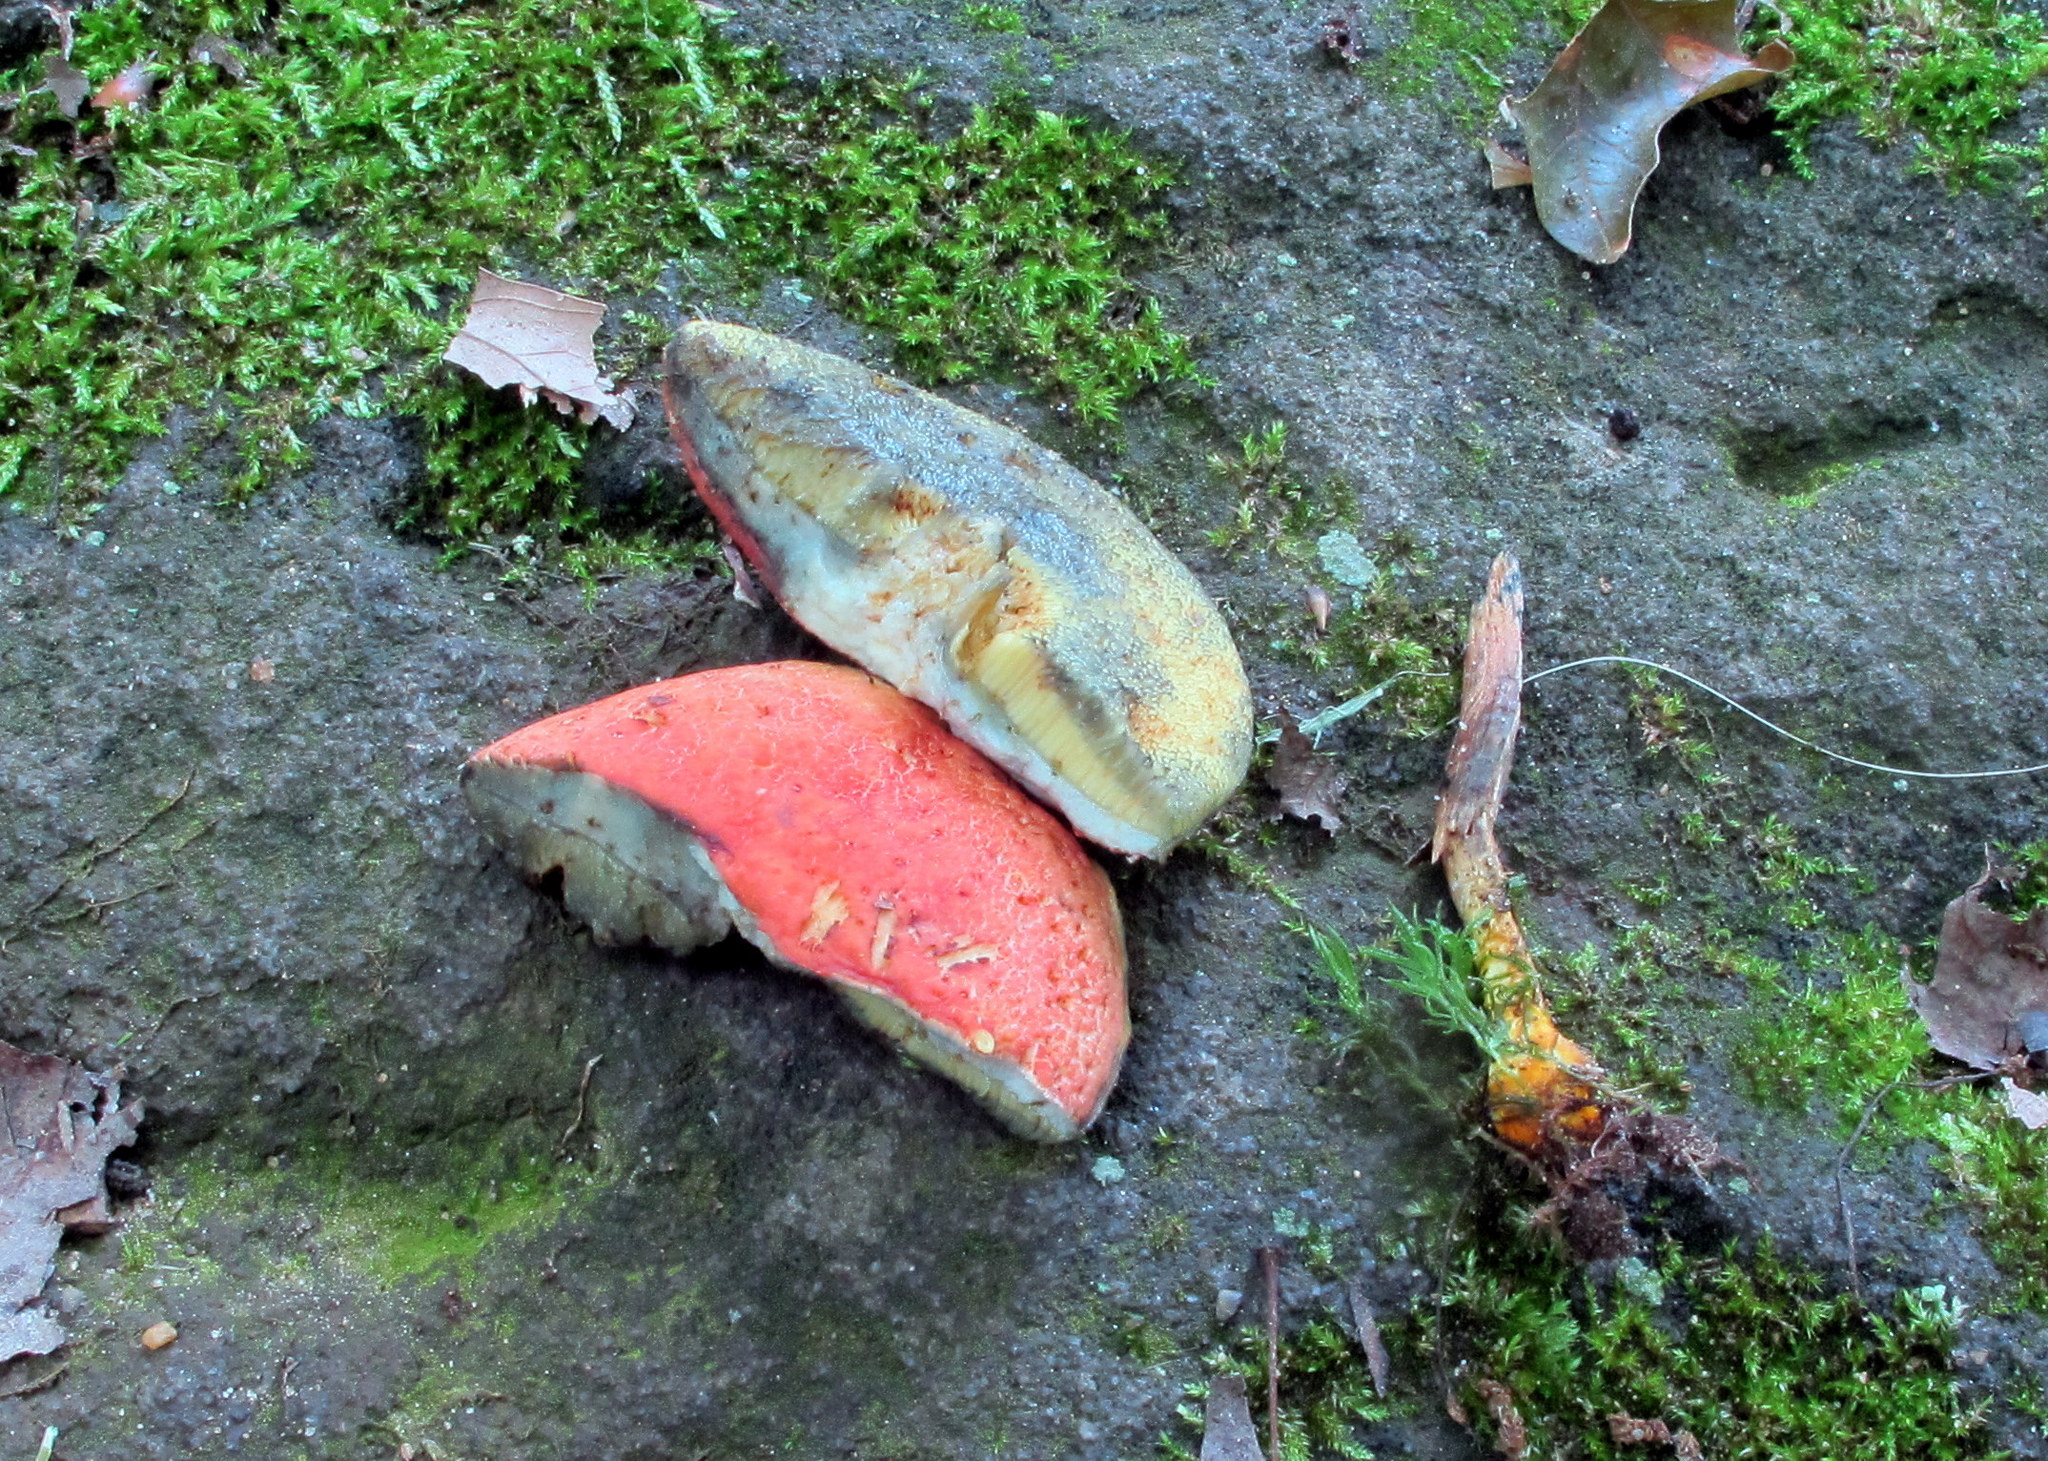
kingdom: Fungi
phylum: Basidiomycota
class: Agaricomycetes
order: Boletales
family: Boletaceae
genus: Hortiboletus
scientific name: Hortiboletus rubellus
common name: Ruby bolete
